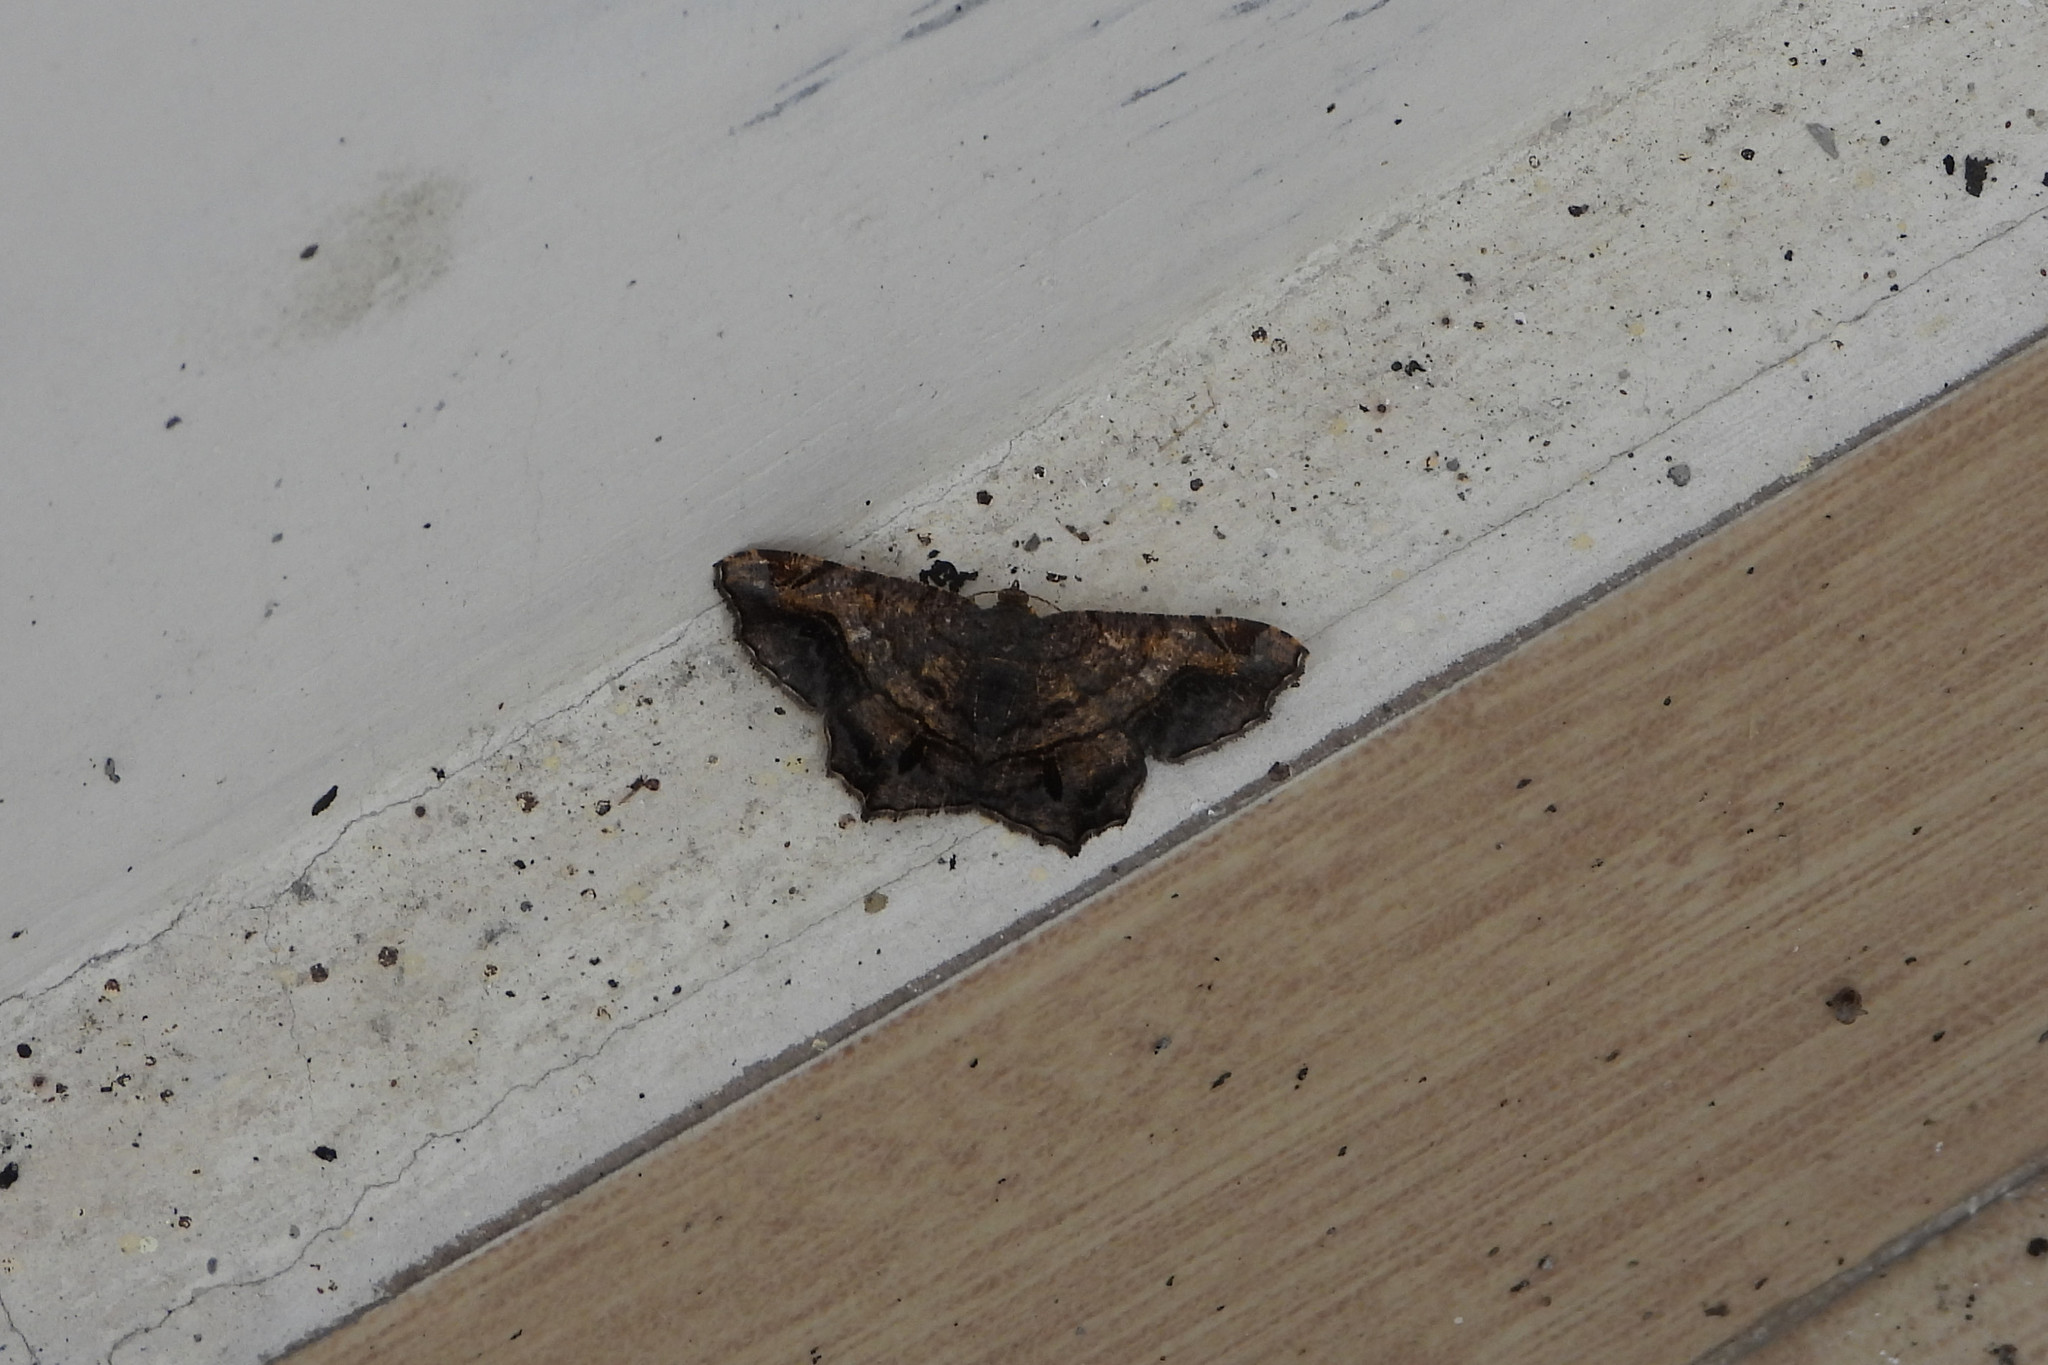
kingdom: Animalia
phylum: Arthropoda
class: Insecta
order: Lepidoptera
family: Geometridae
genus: Chiasmia
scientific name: Chiasmia elvirata
